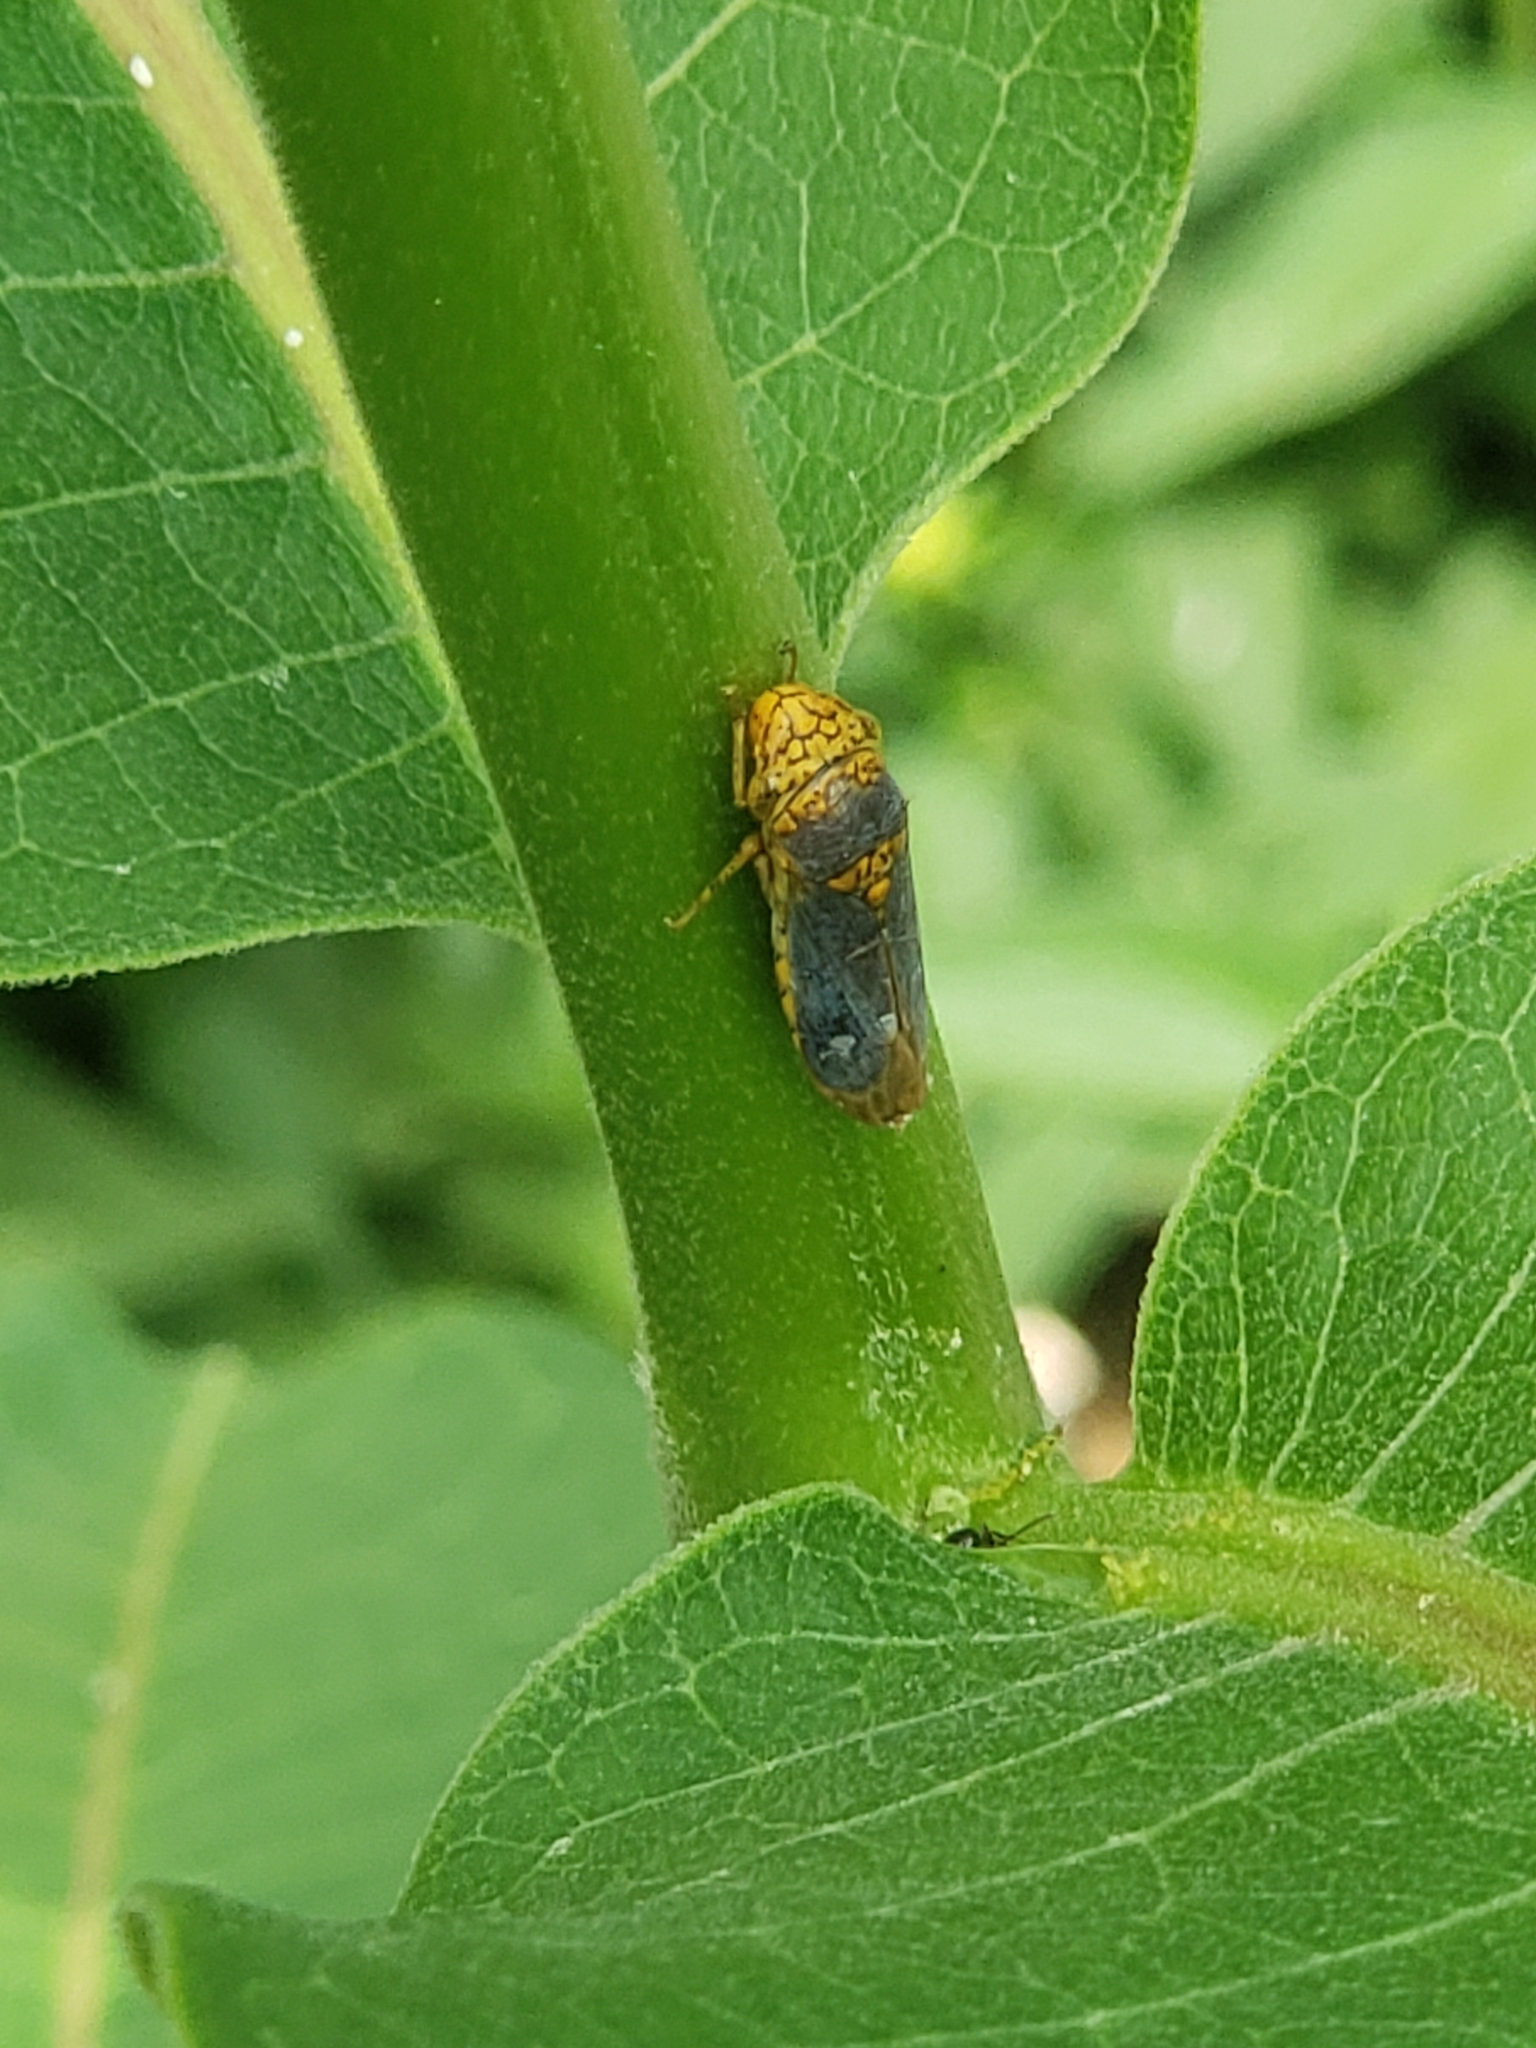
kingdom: Animalia
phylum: Arthropoda
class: Insecta
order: Hemiptera
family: Cicadellidae
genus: Oncometopia
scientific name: Oncometopia orbona
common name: Broad-headed sharpshooter
